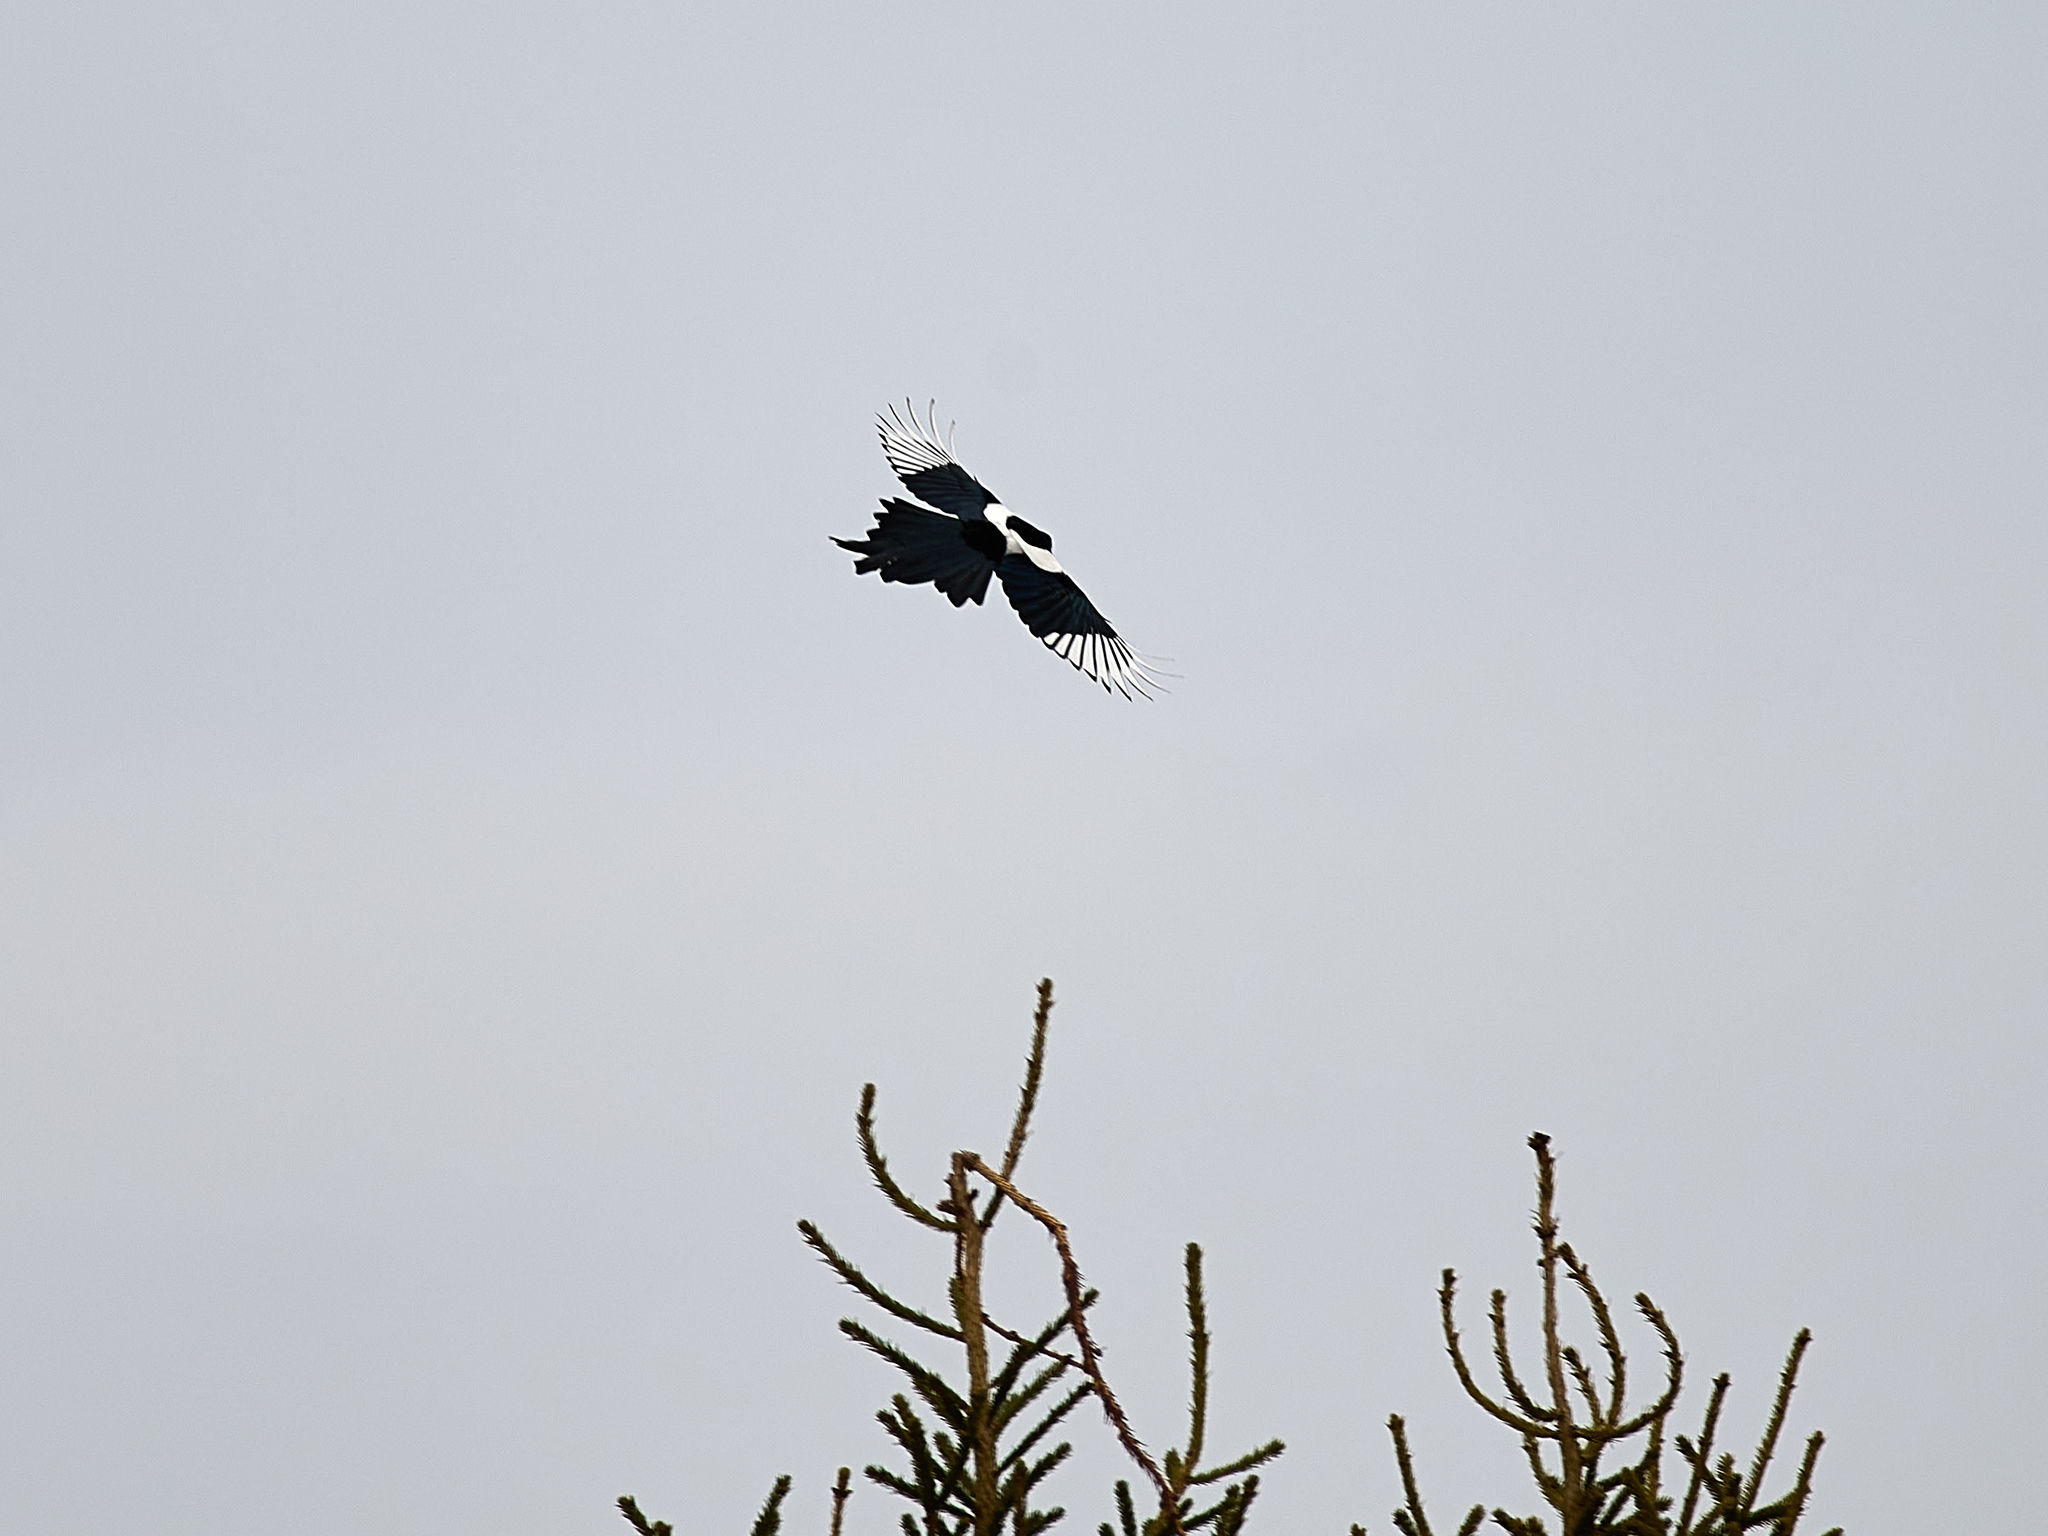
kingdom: Animalia
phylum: Chordata
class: Aves
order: Passeriformes
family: Corvidae
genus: Pica
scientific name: Pica pica
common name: Eurasian magpie
